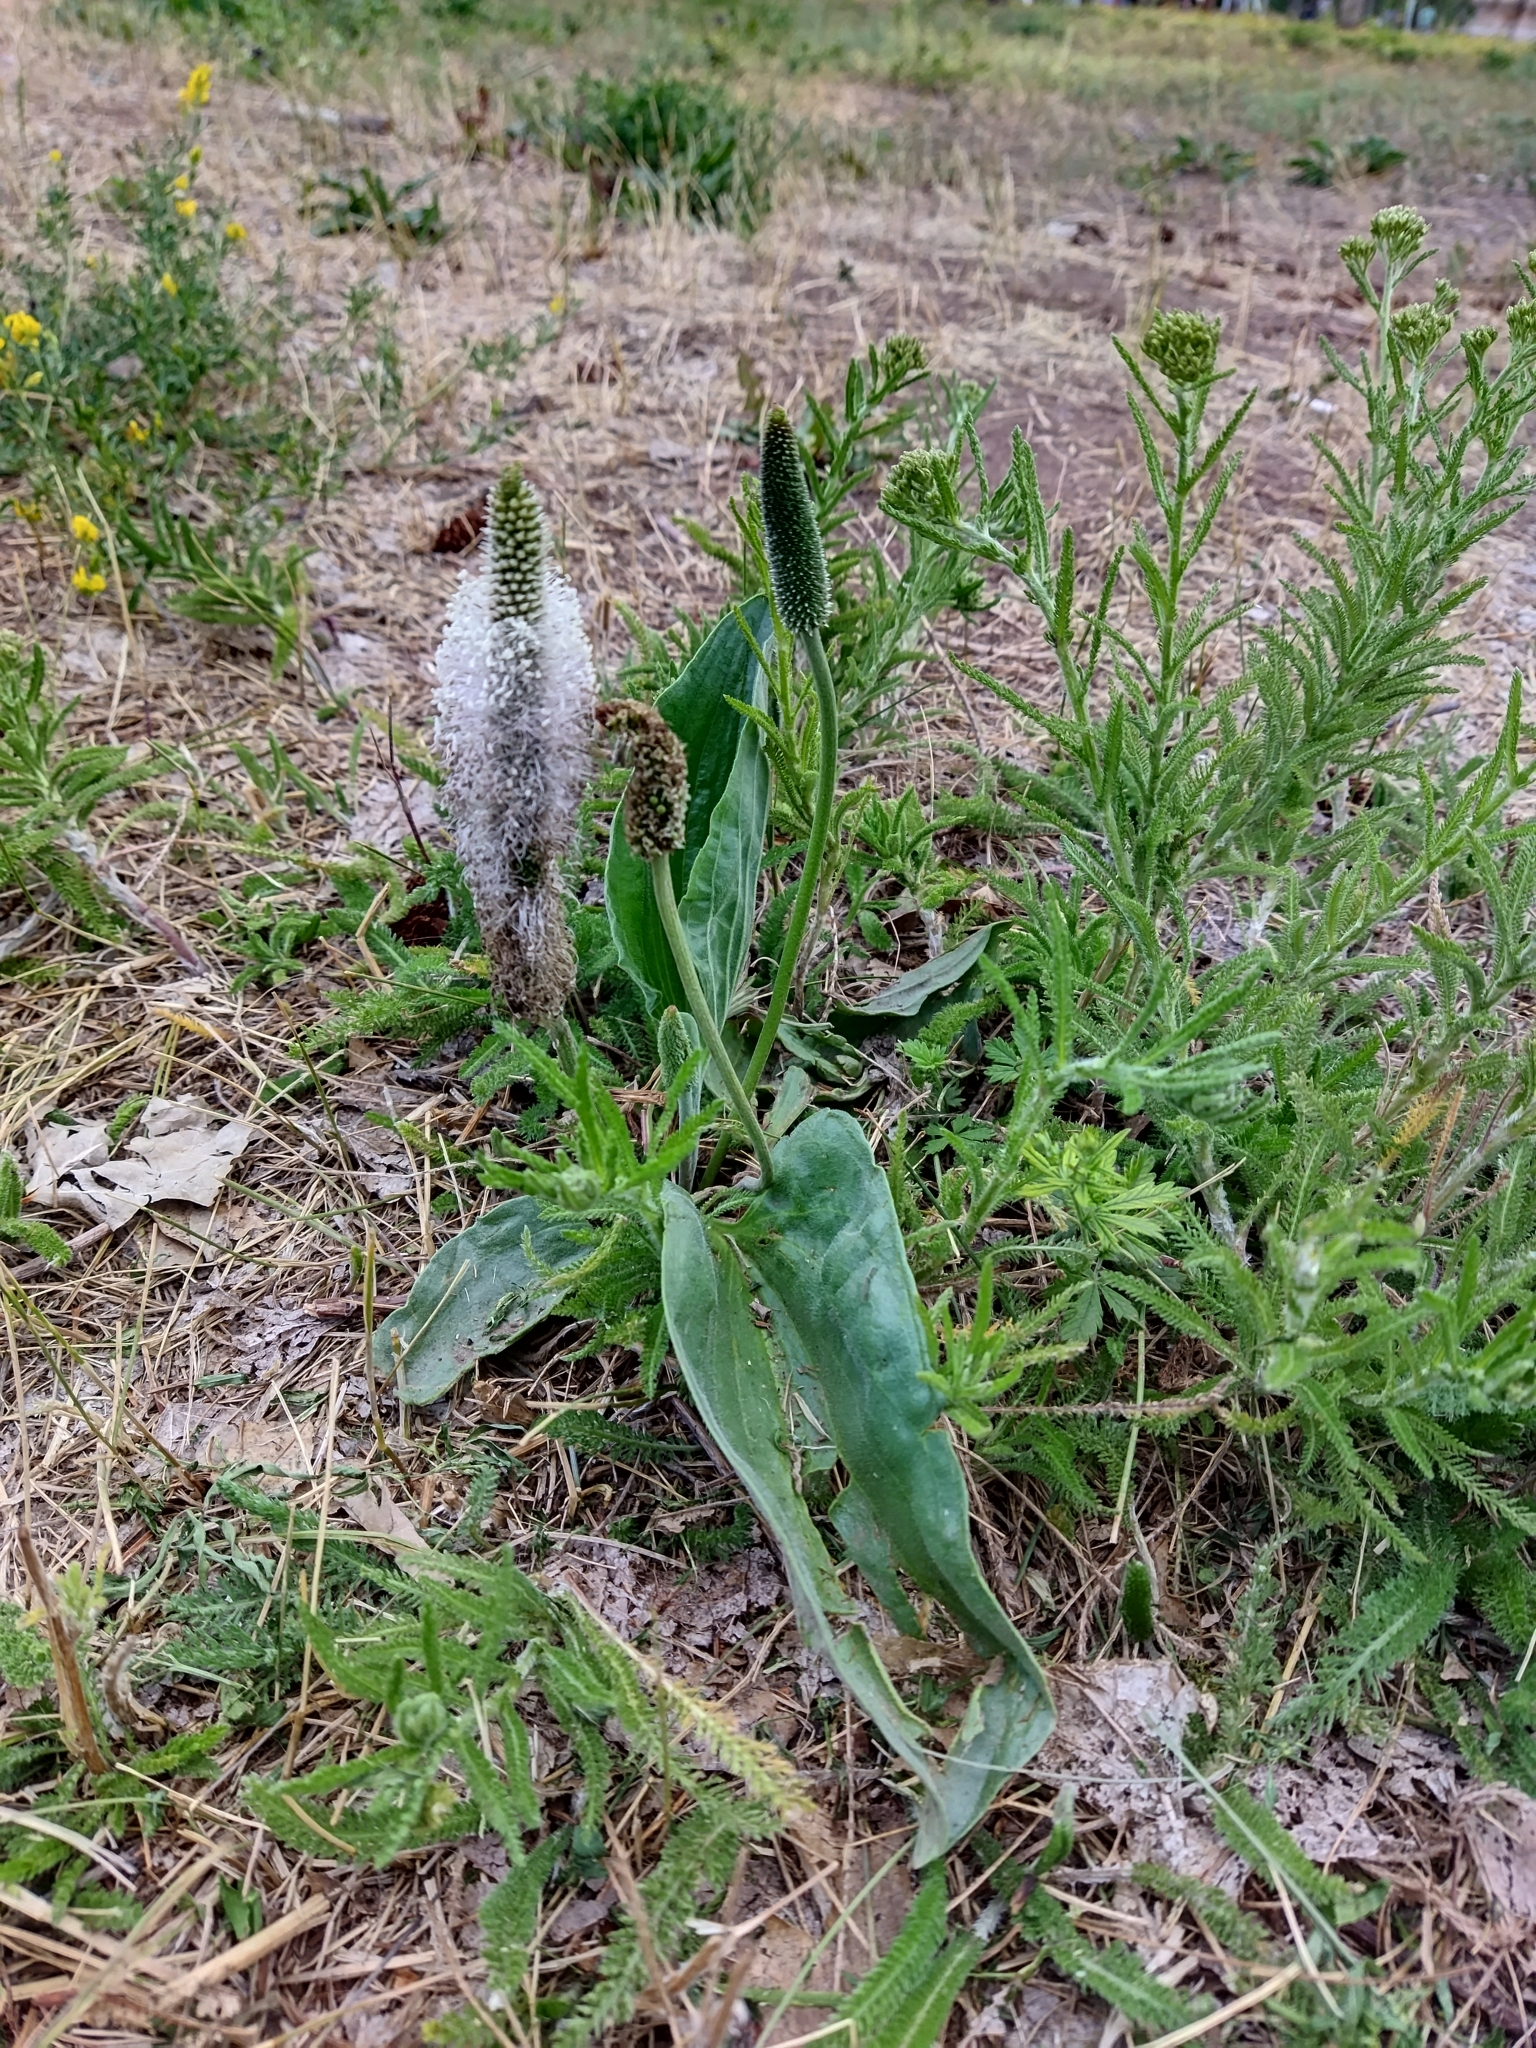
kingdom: Plantae
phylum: Tracheophyta
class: Magnoliopsida
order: Lamiales
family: Plantaginaceae
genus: Plantago
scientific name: Plantago maxima
